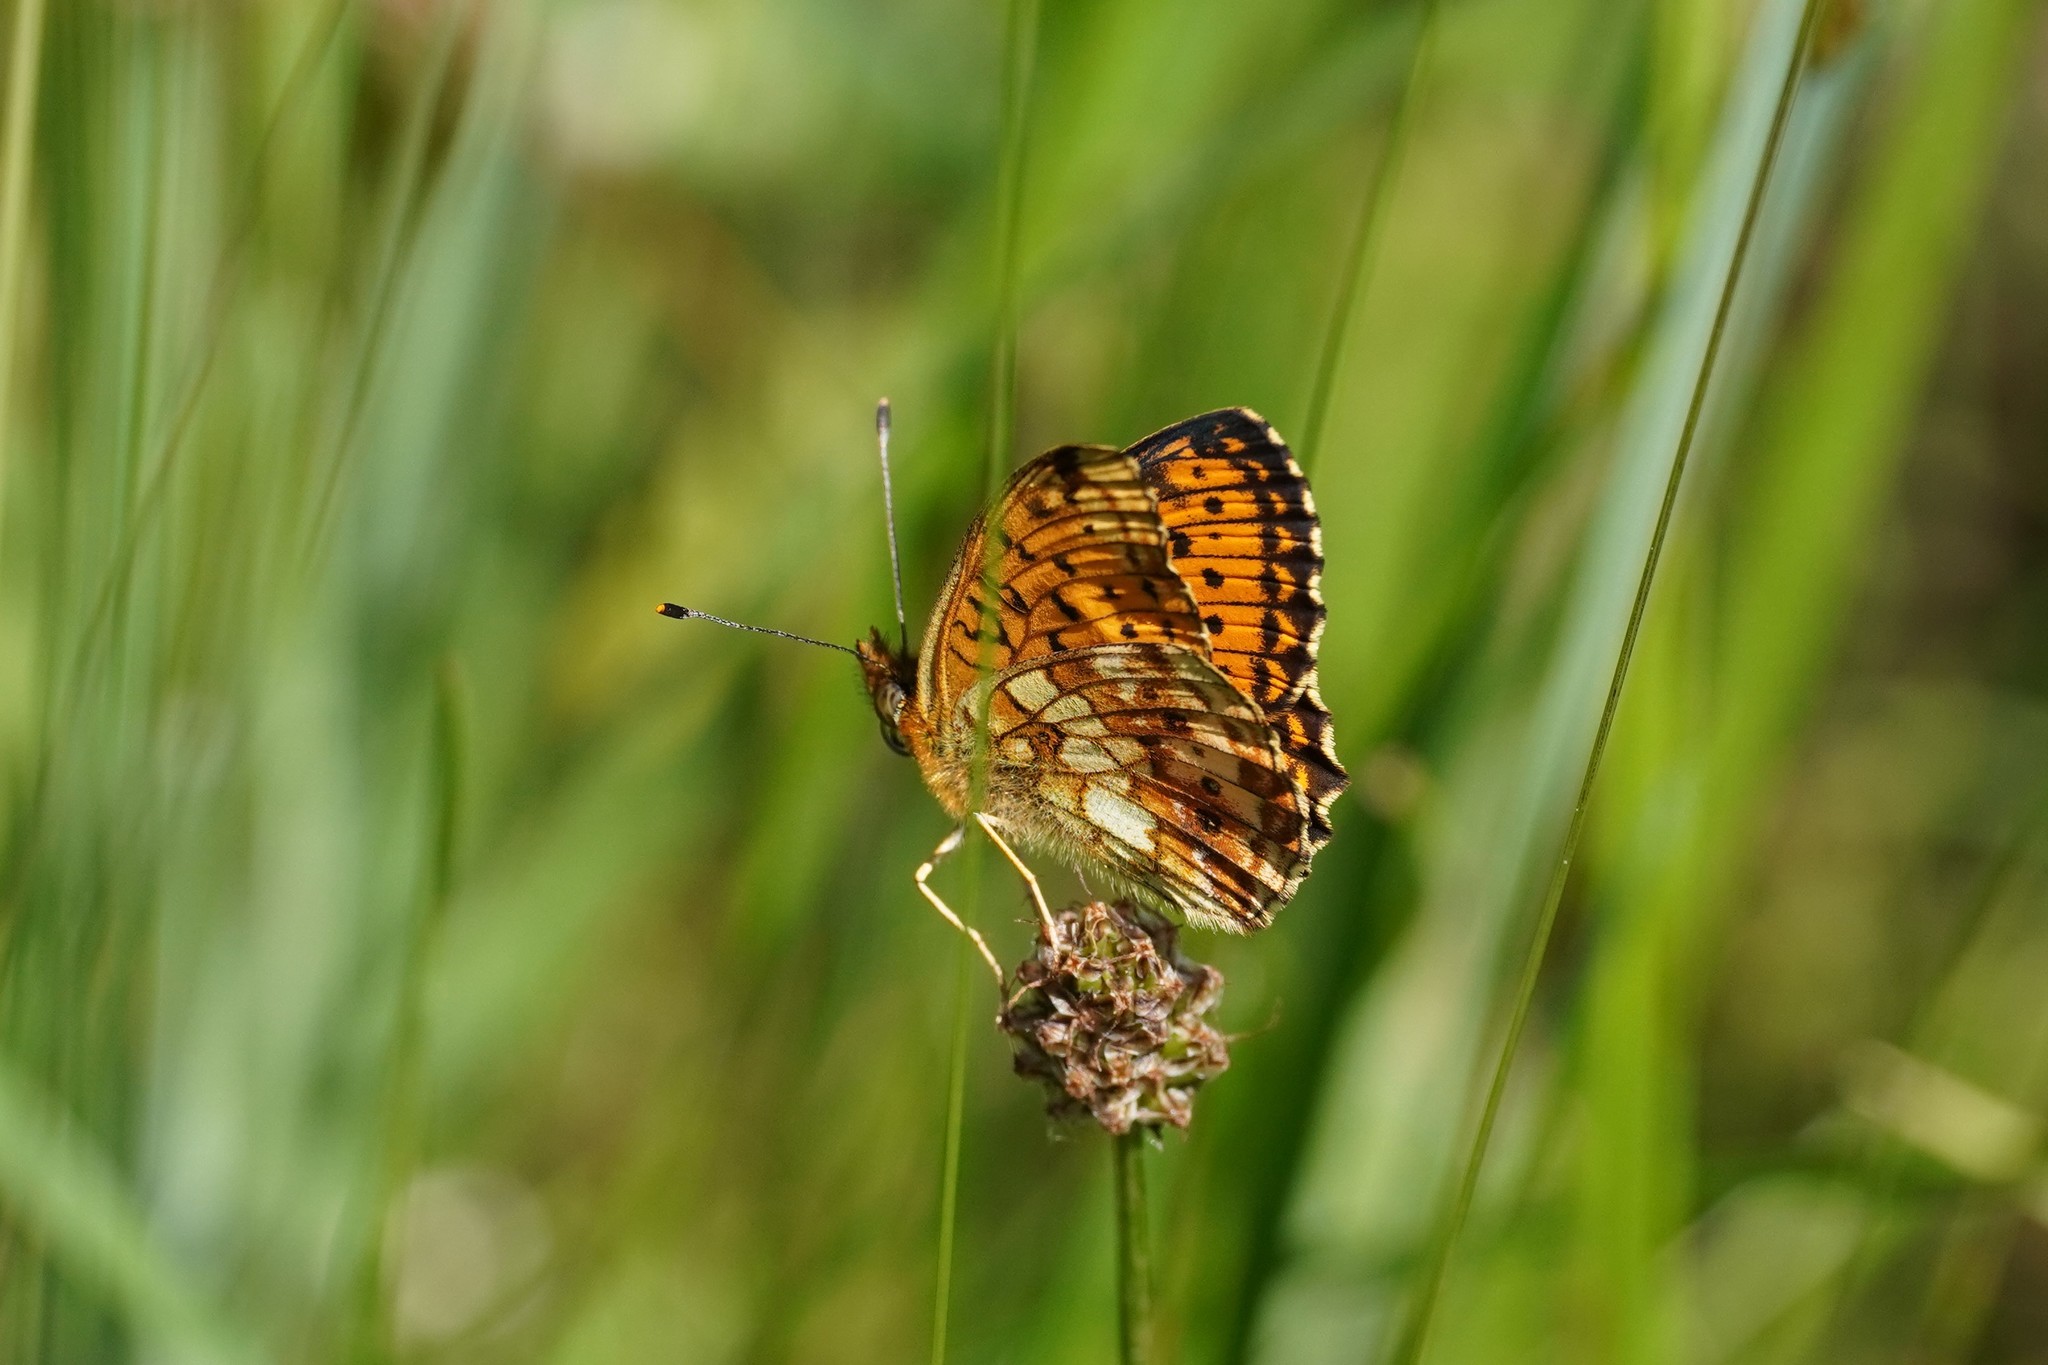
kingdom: Animalia
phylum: Arthropoda
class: Insecta
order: Lepidoptera
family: Nymphalidae
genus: Brenthis
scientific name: Brenthis ino
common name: Lesser marbled fritillary
